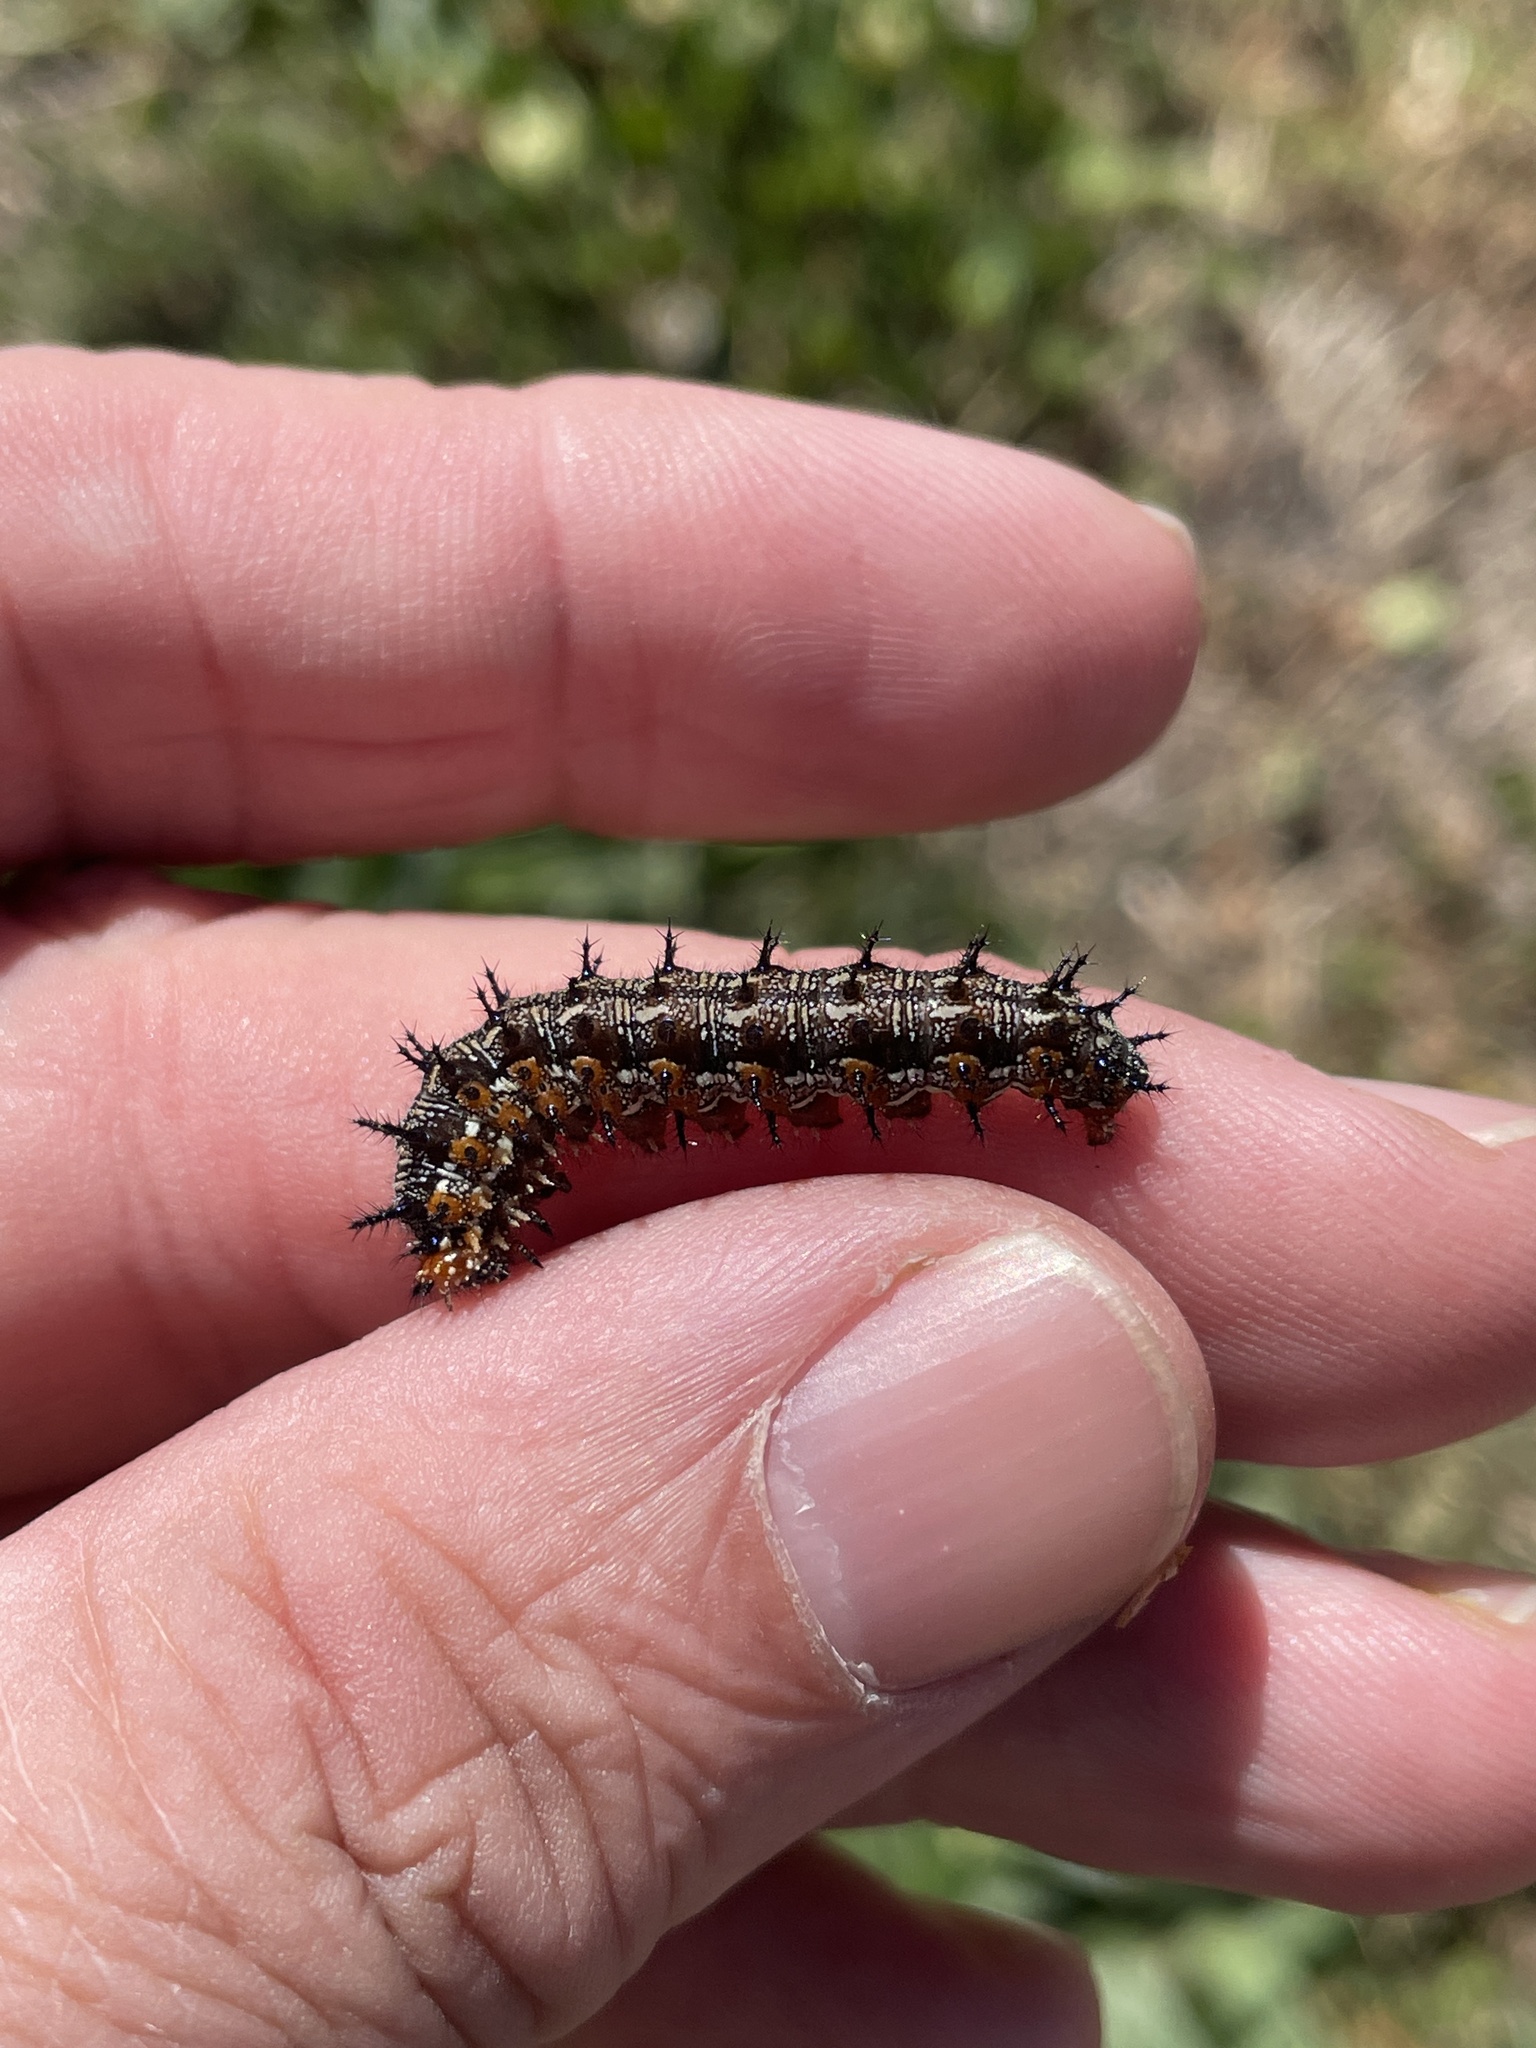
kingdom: Animalia
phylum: Arthropoda
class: Insecta
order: Lepidoptera
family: Nymphalidae
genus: Junonia
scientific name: Junonia coenia
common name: Common buckeye
